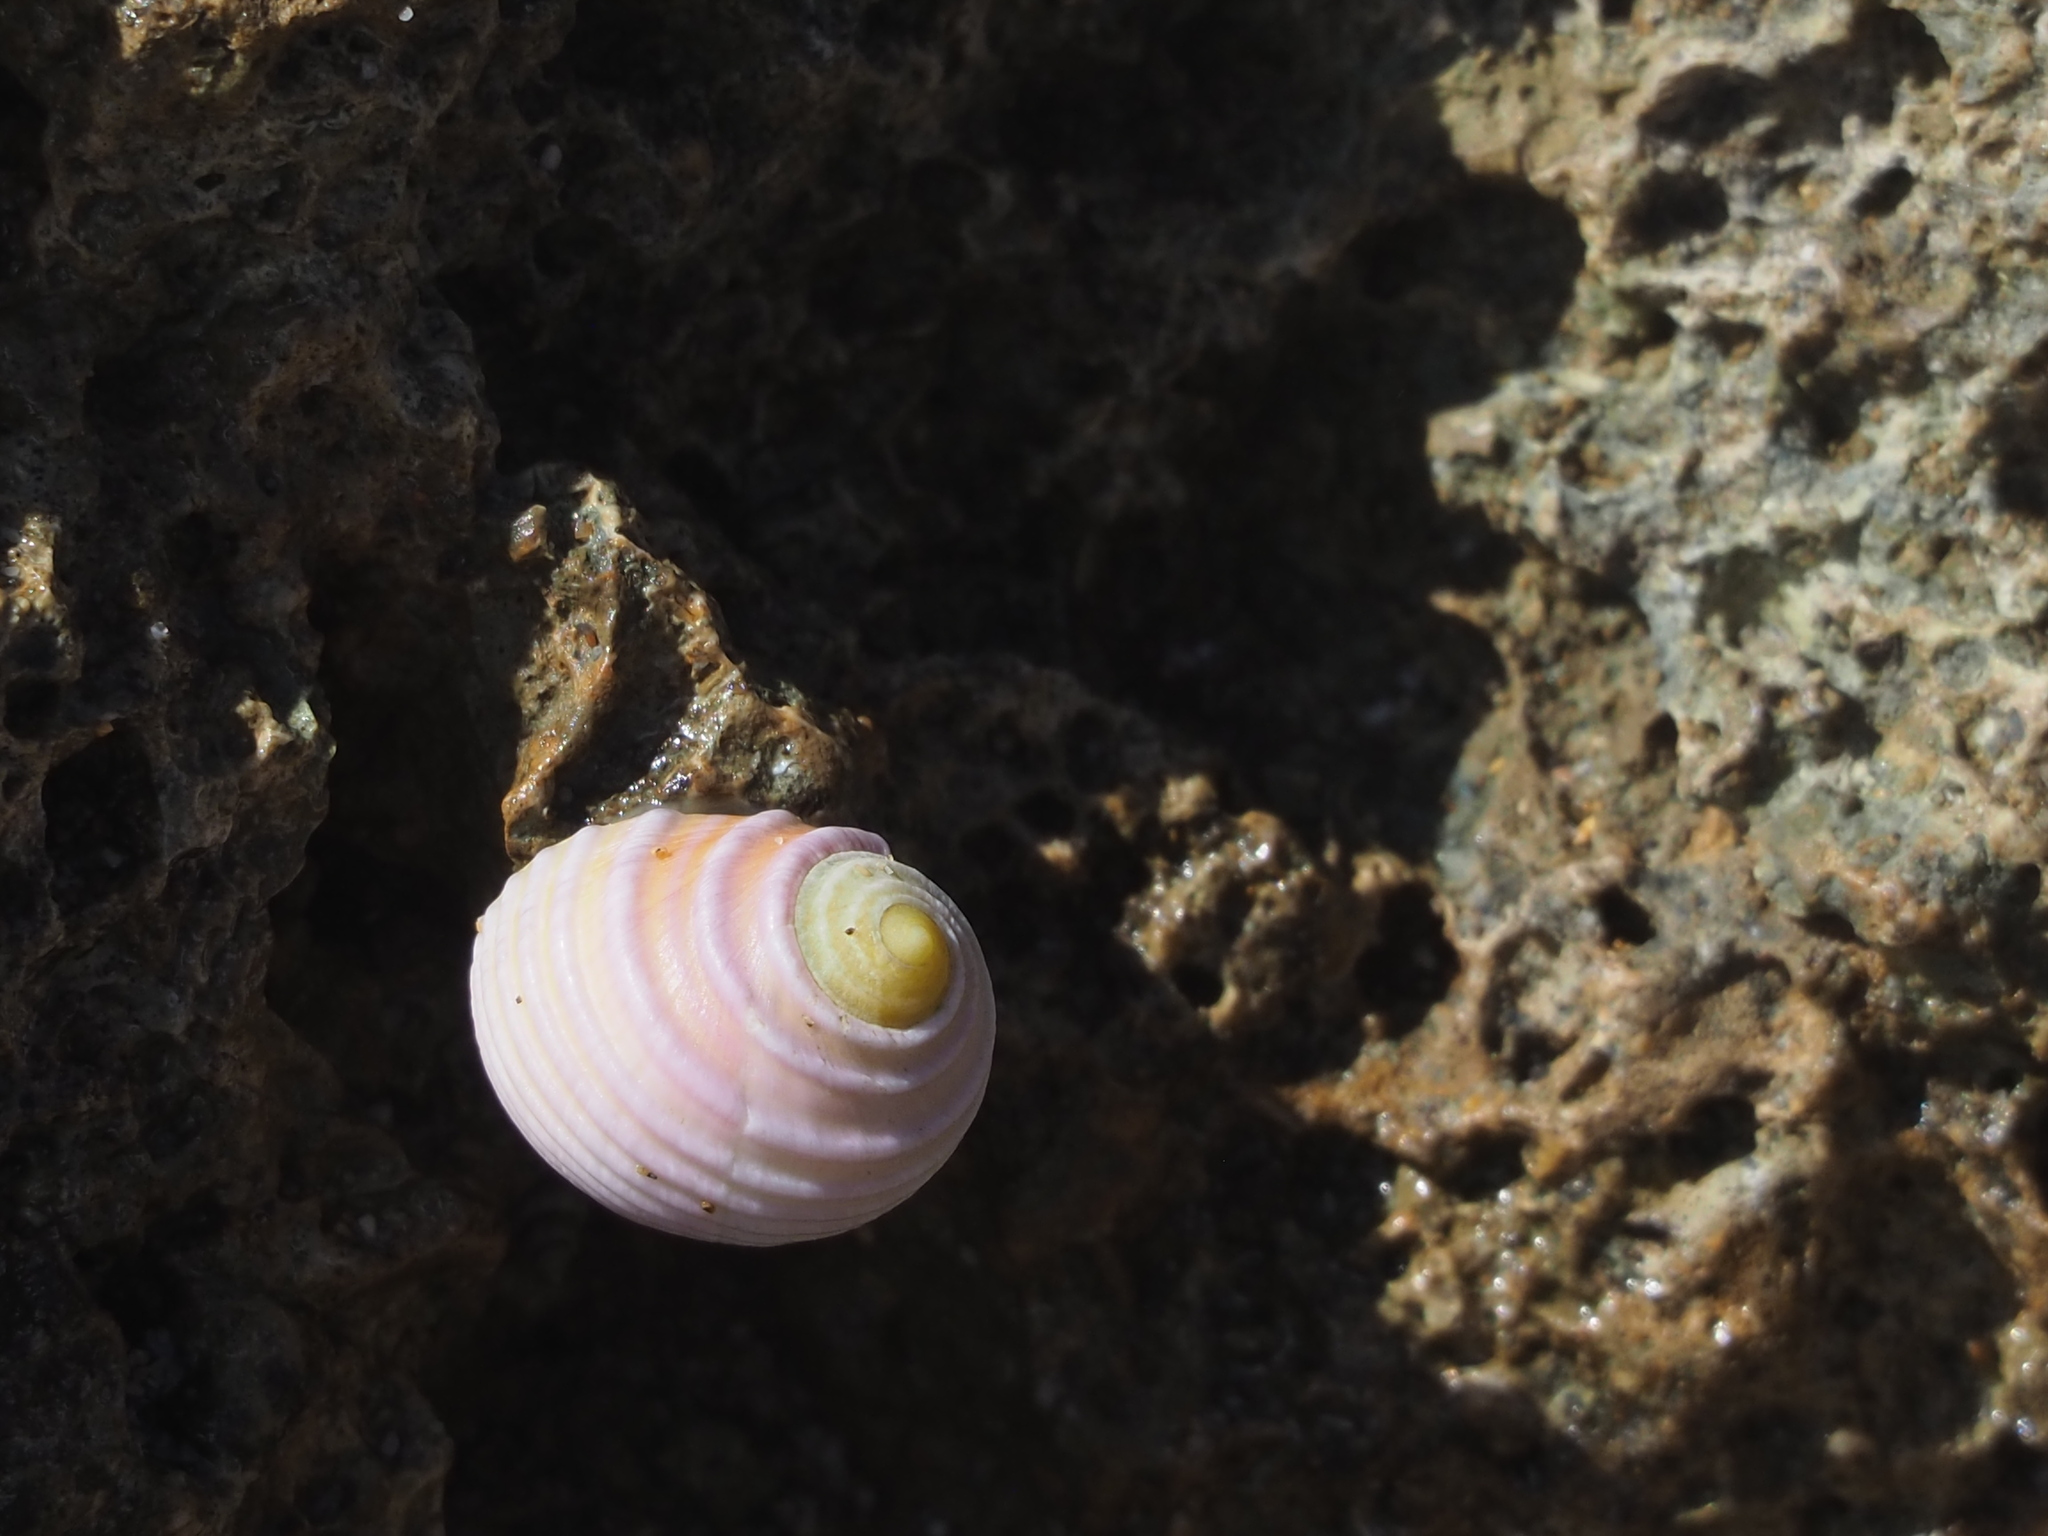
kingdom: Animalia
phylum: Mollusca
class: Gastropoda
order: Cycloneritida
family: Neritidae
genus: Nerita
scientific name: Nerita plicata
